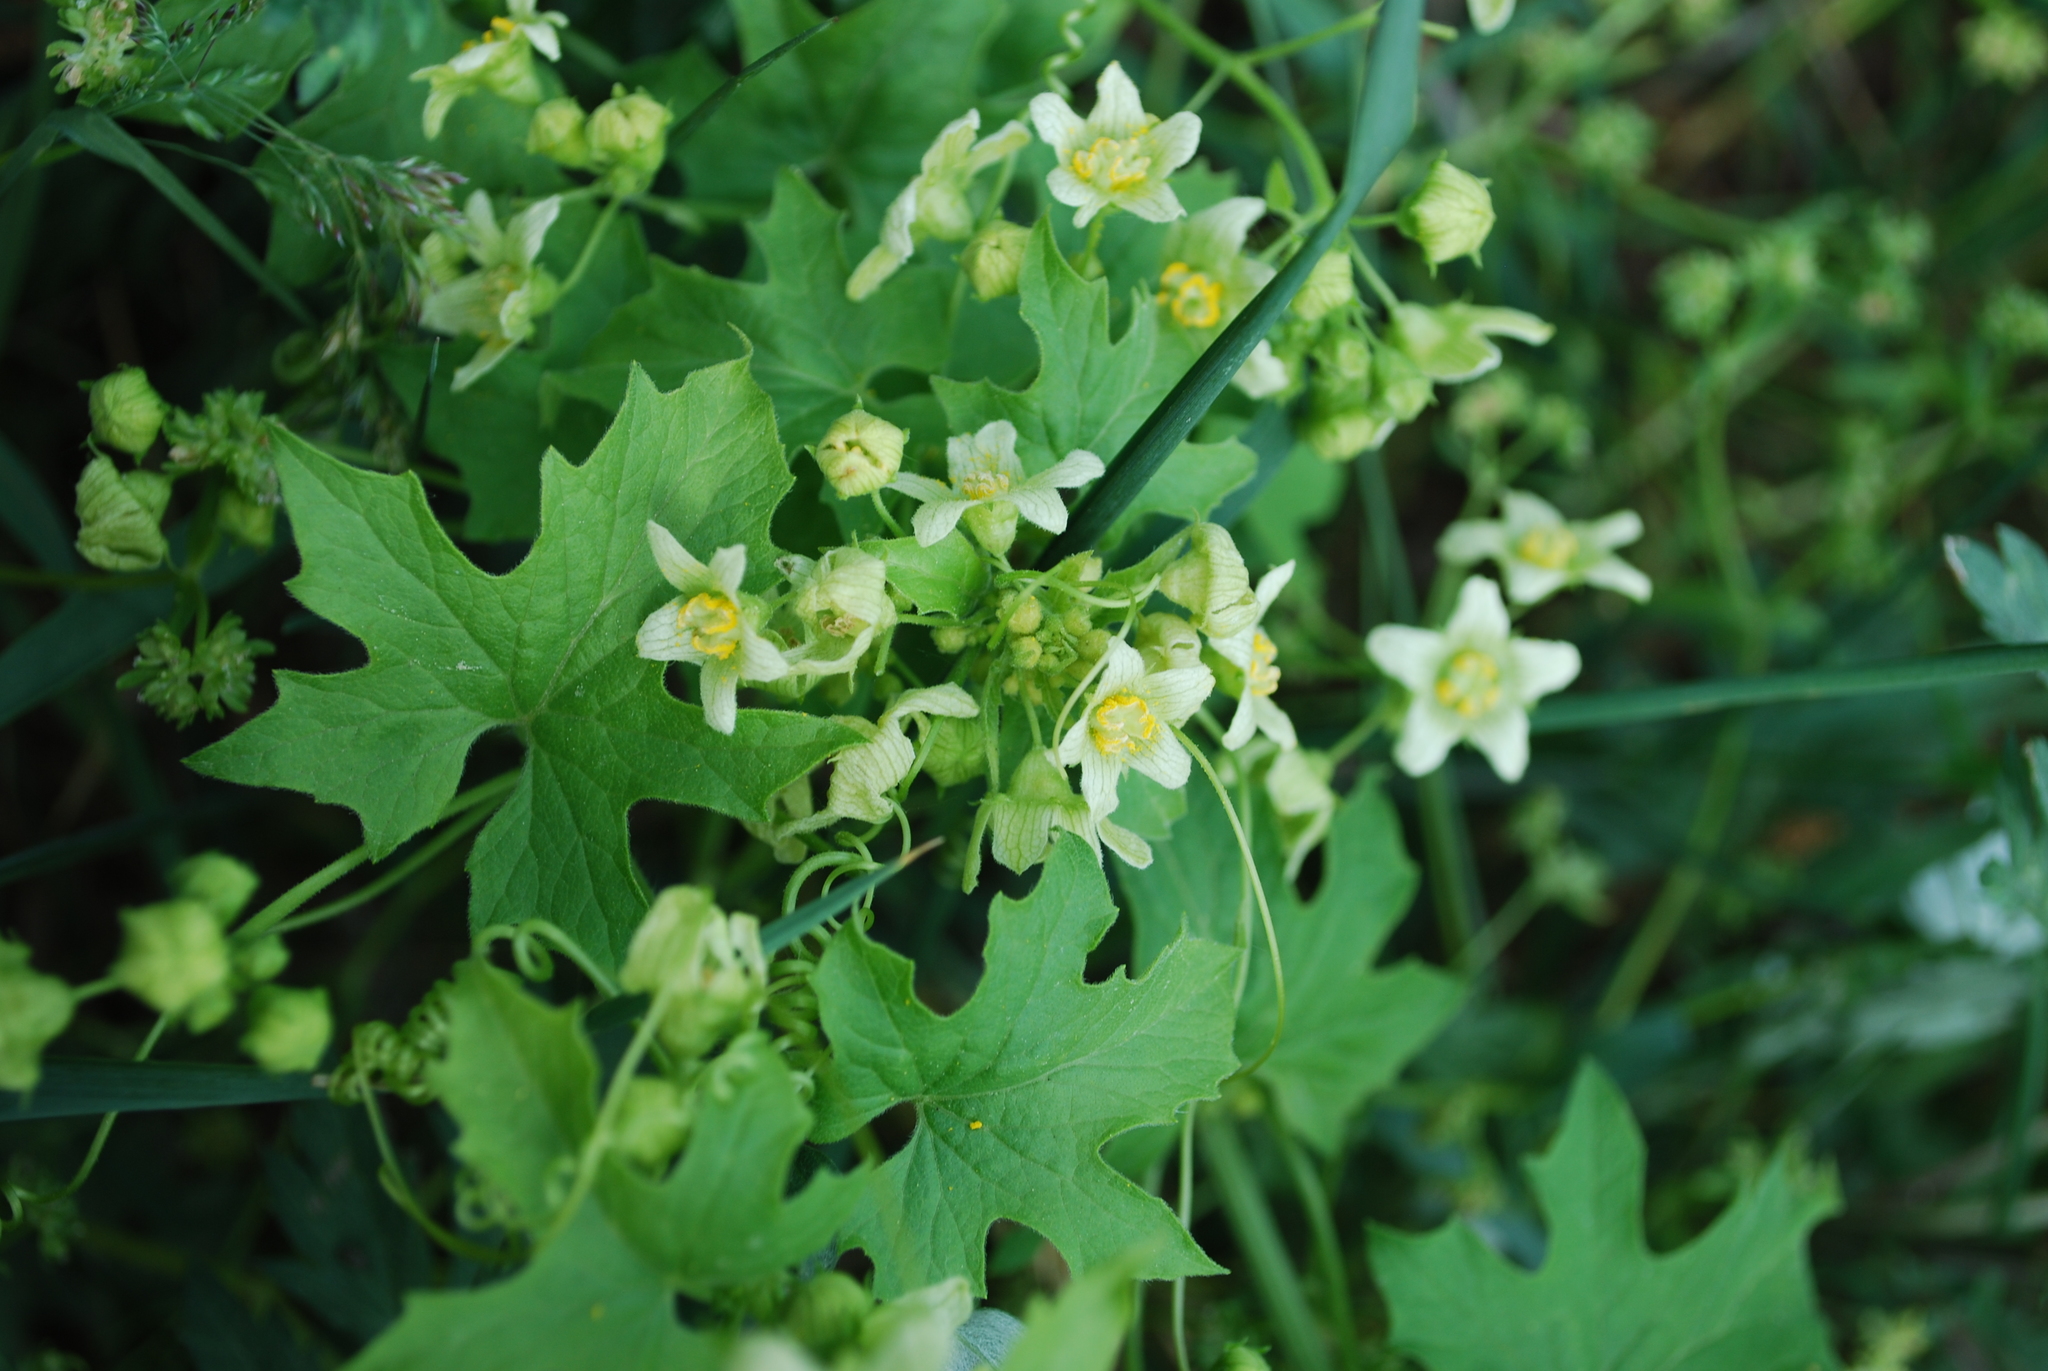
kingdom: Plantae
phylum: Tracheophyta
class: Magnoliopsida
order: Cucurbitales
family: Cucurbitaceae
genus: Bryonia
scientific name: Bryonia cretica
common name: Cretan bryony
